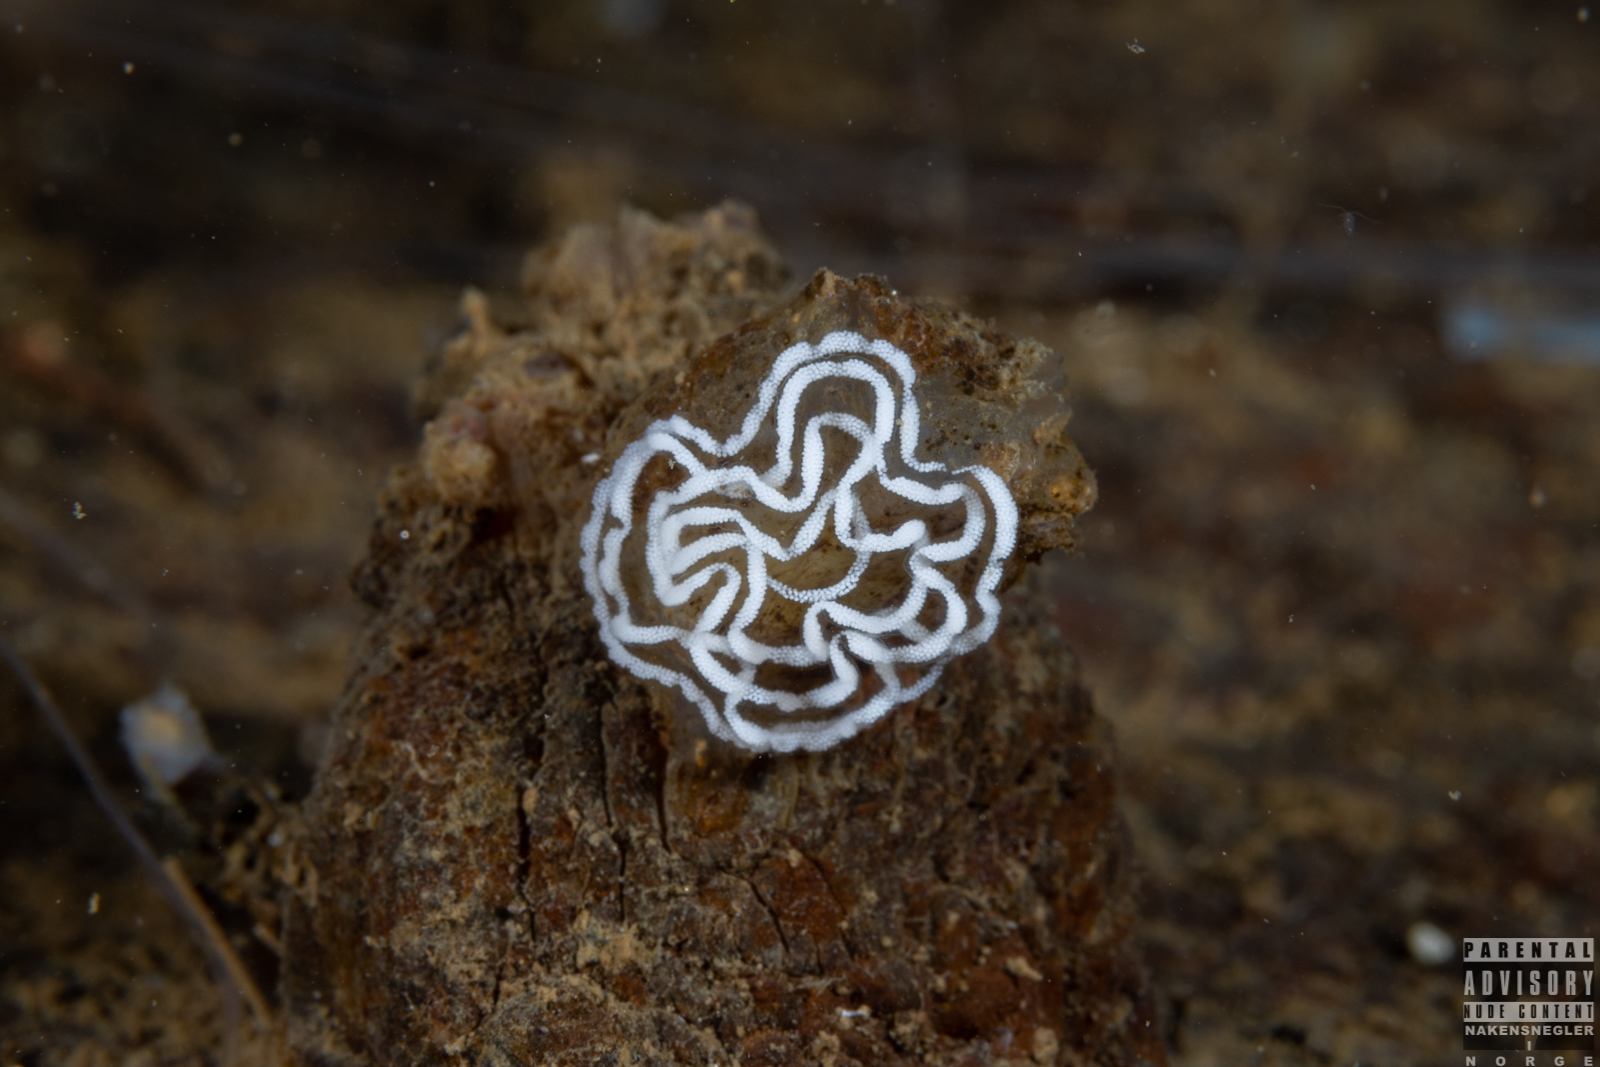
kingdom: Animalia
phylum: Mollusca
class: Gastropoda
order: Nudibranchia
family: Tritoniidae
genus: Duvaucelia
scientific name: Duvaucelia plebeia
